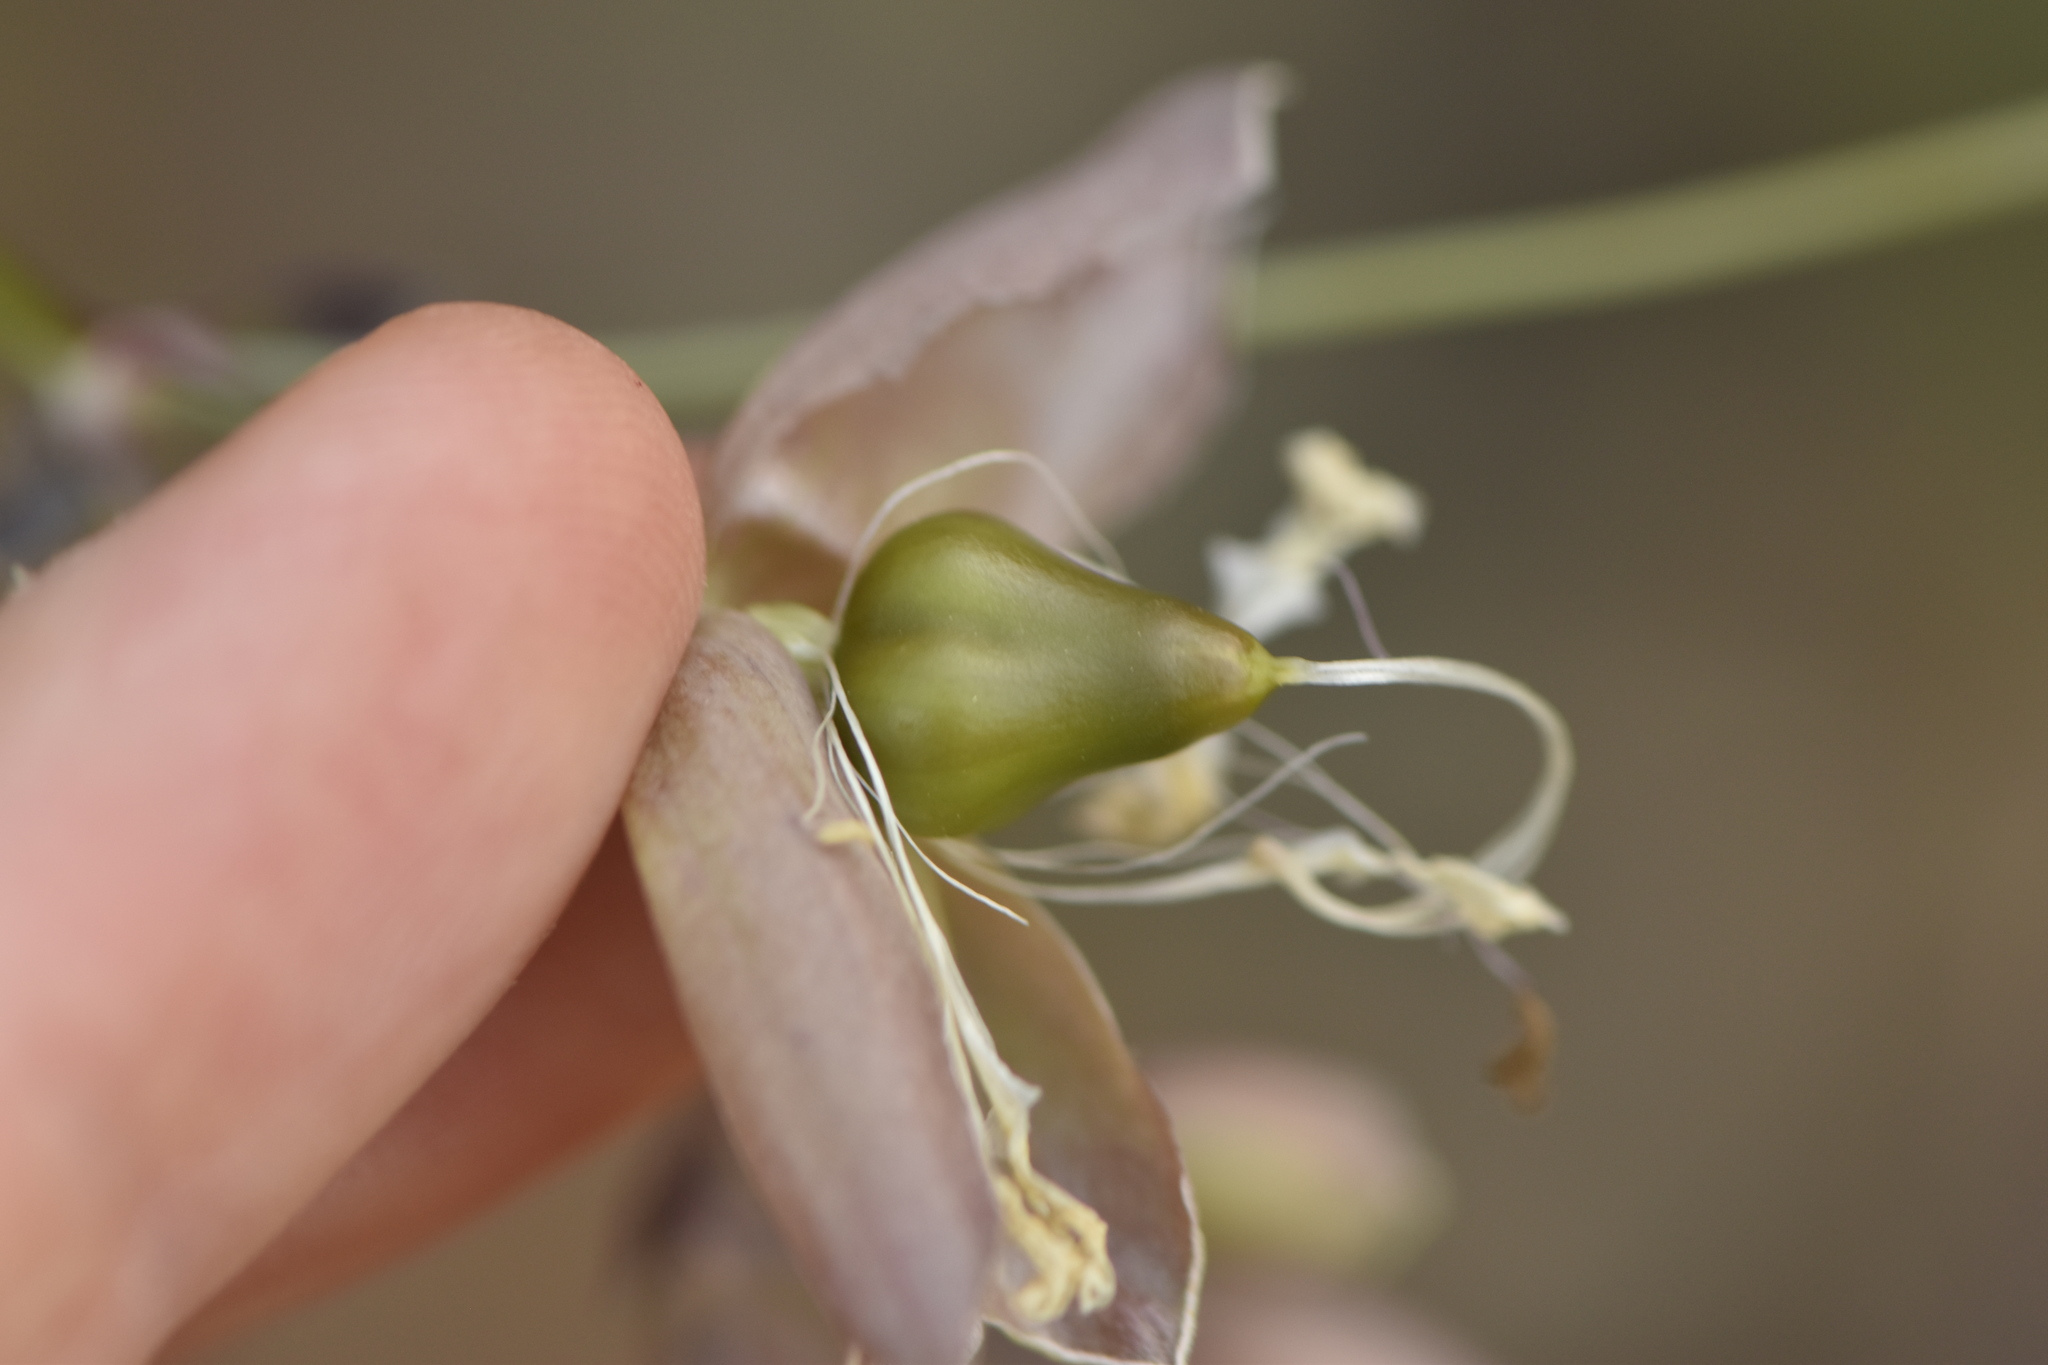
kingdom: Plantae
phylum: Tracheophyta
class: Magnoliopsida
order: Caryophyllales
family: Caryophyllaceae
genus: Silene
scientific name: Silene vulgaris
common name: Bladder campion
